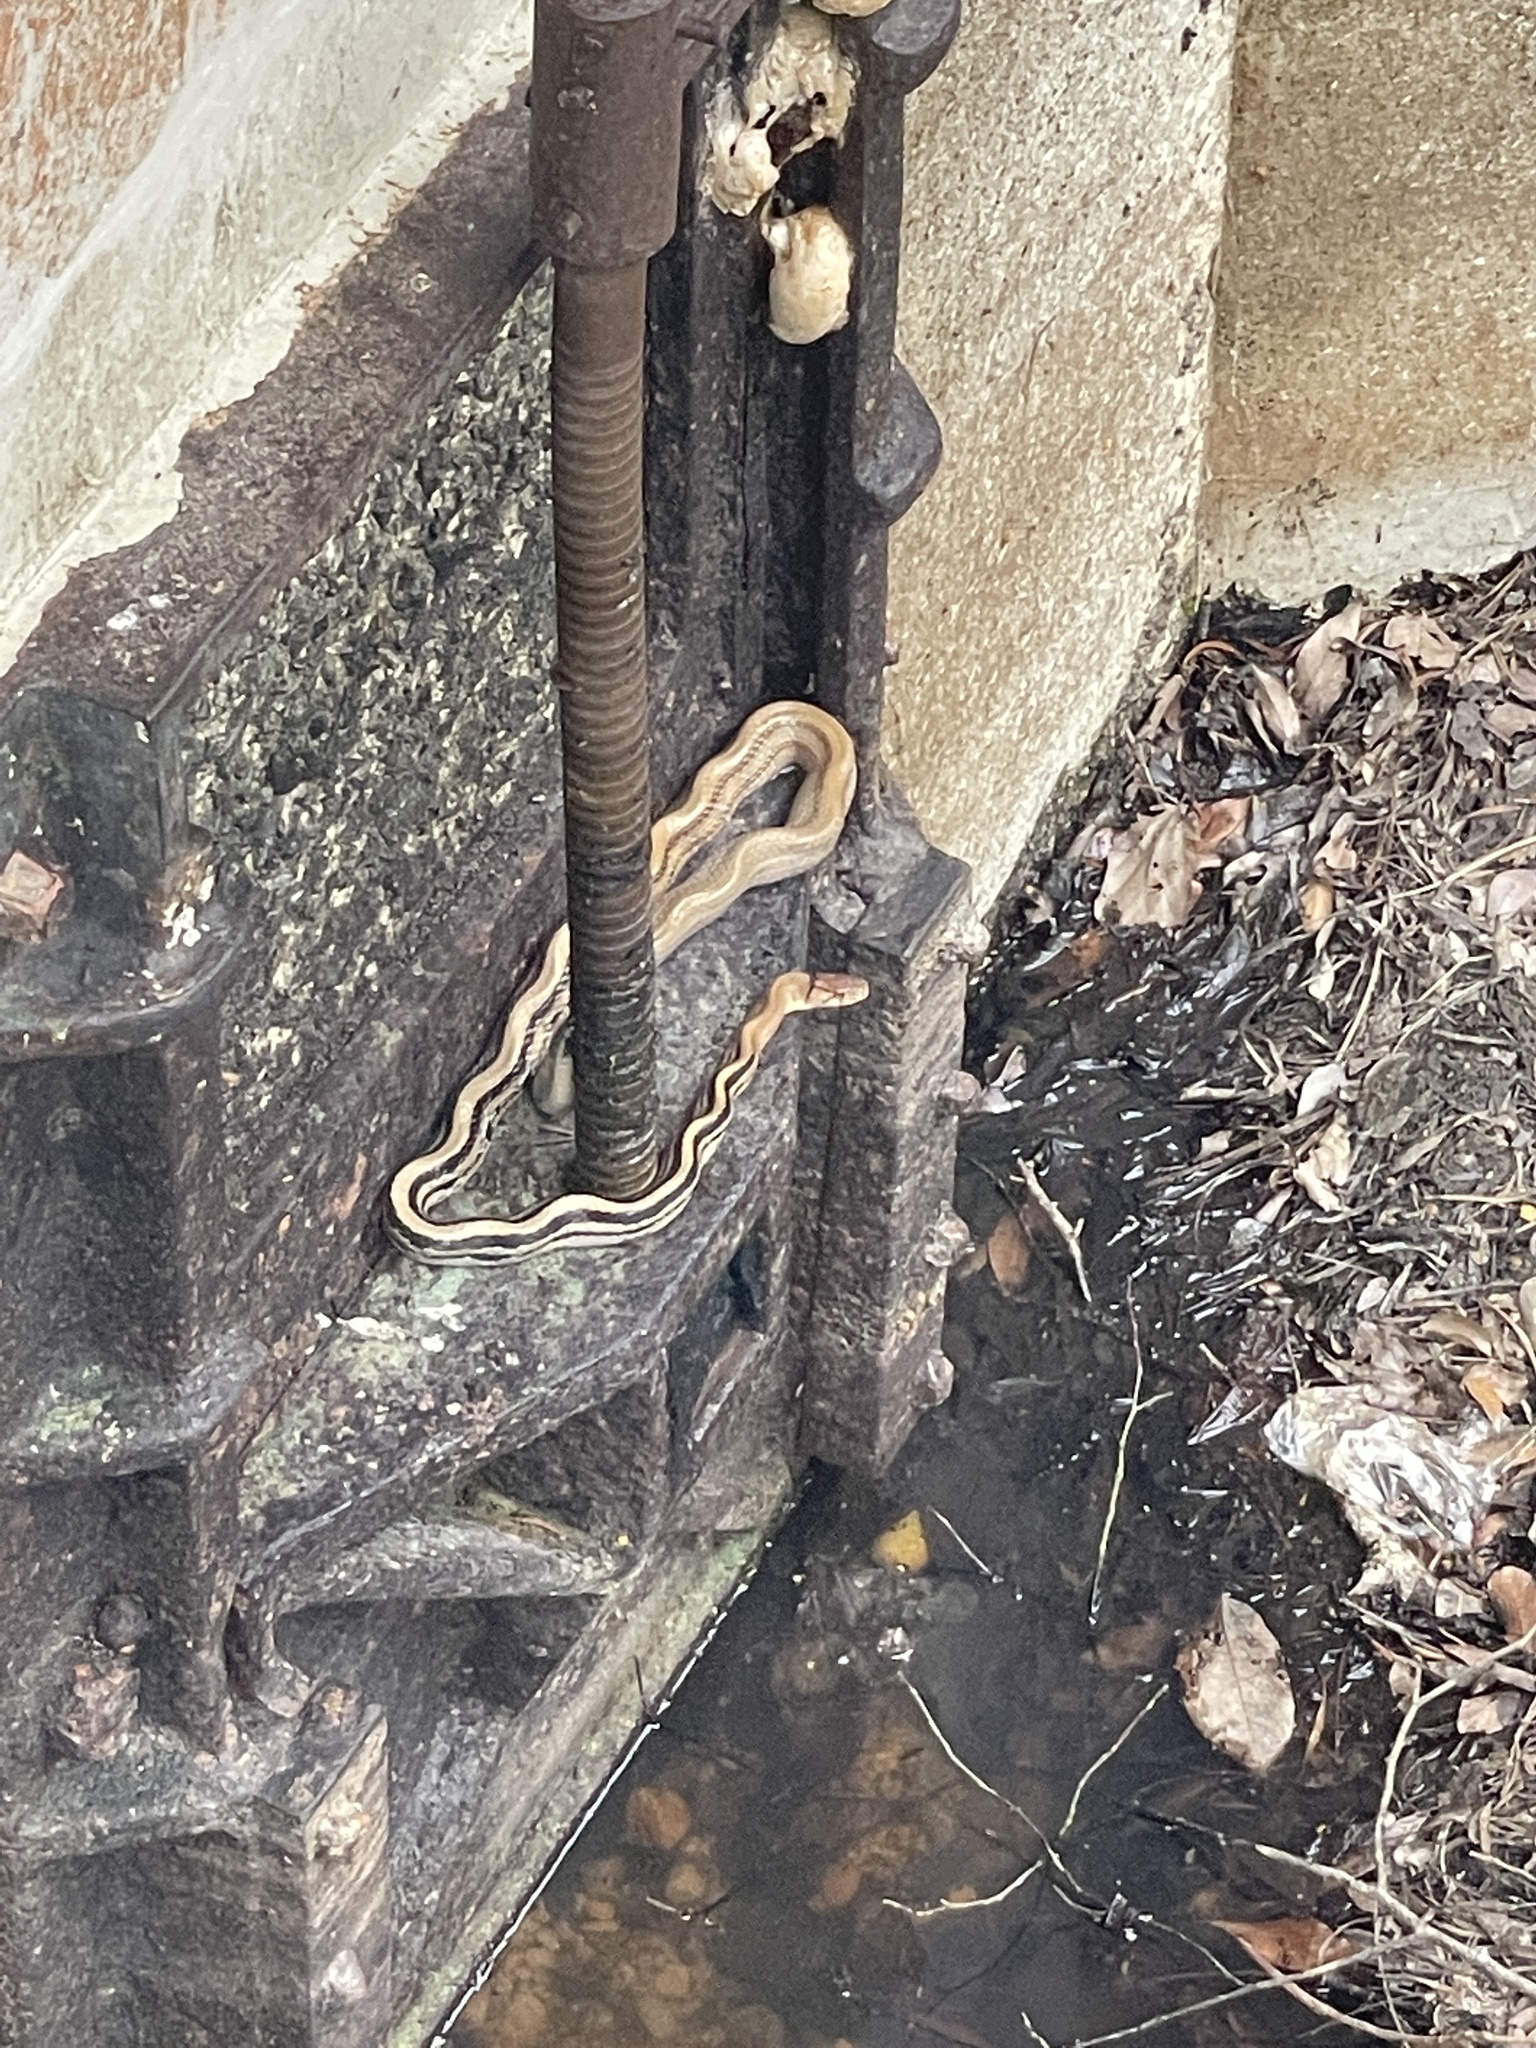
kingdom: Animalia
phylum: Chordata
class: Squamata
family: Colubridae
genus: Coelognathus
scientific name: Coelognathus radiatus
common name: Copperhead rat snake
